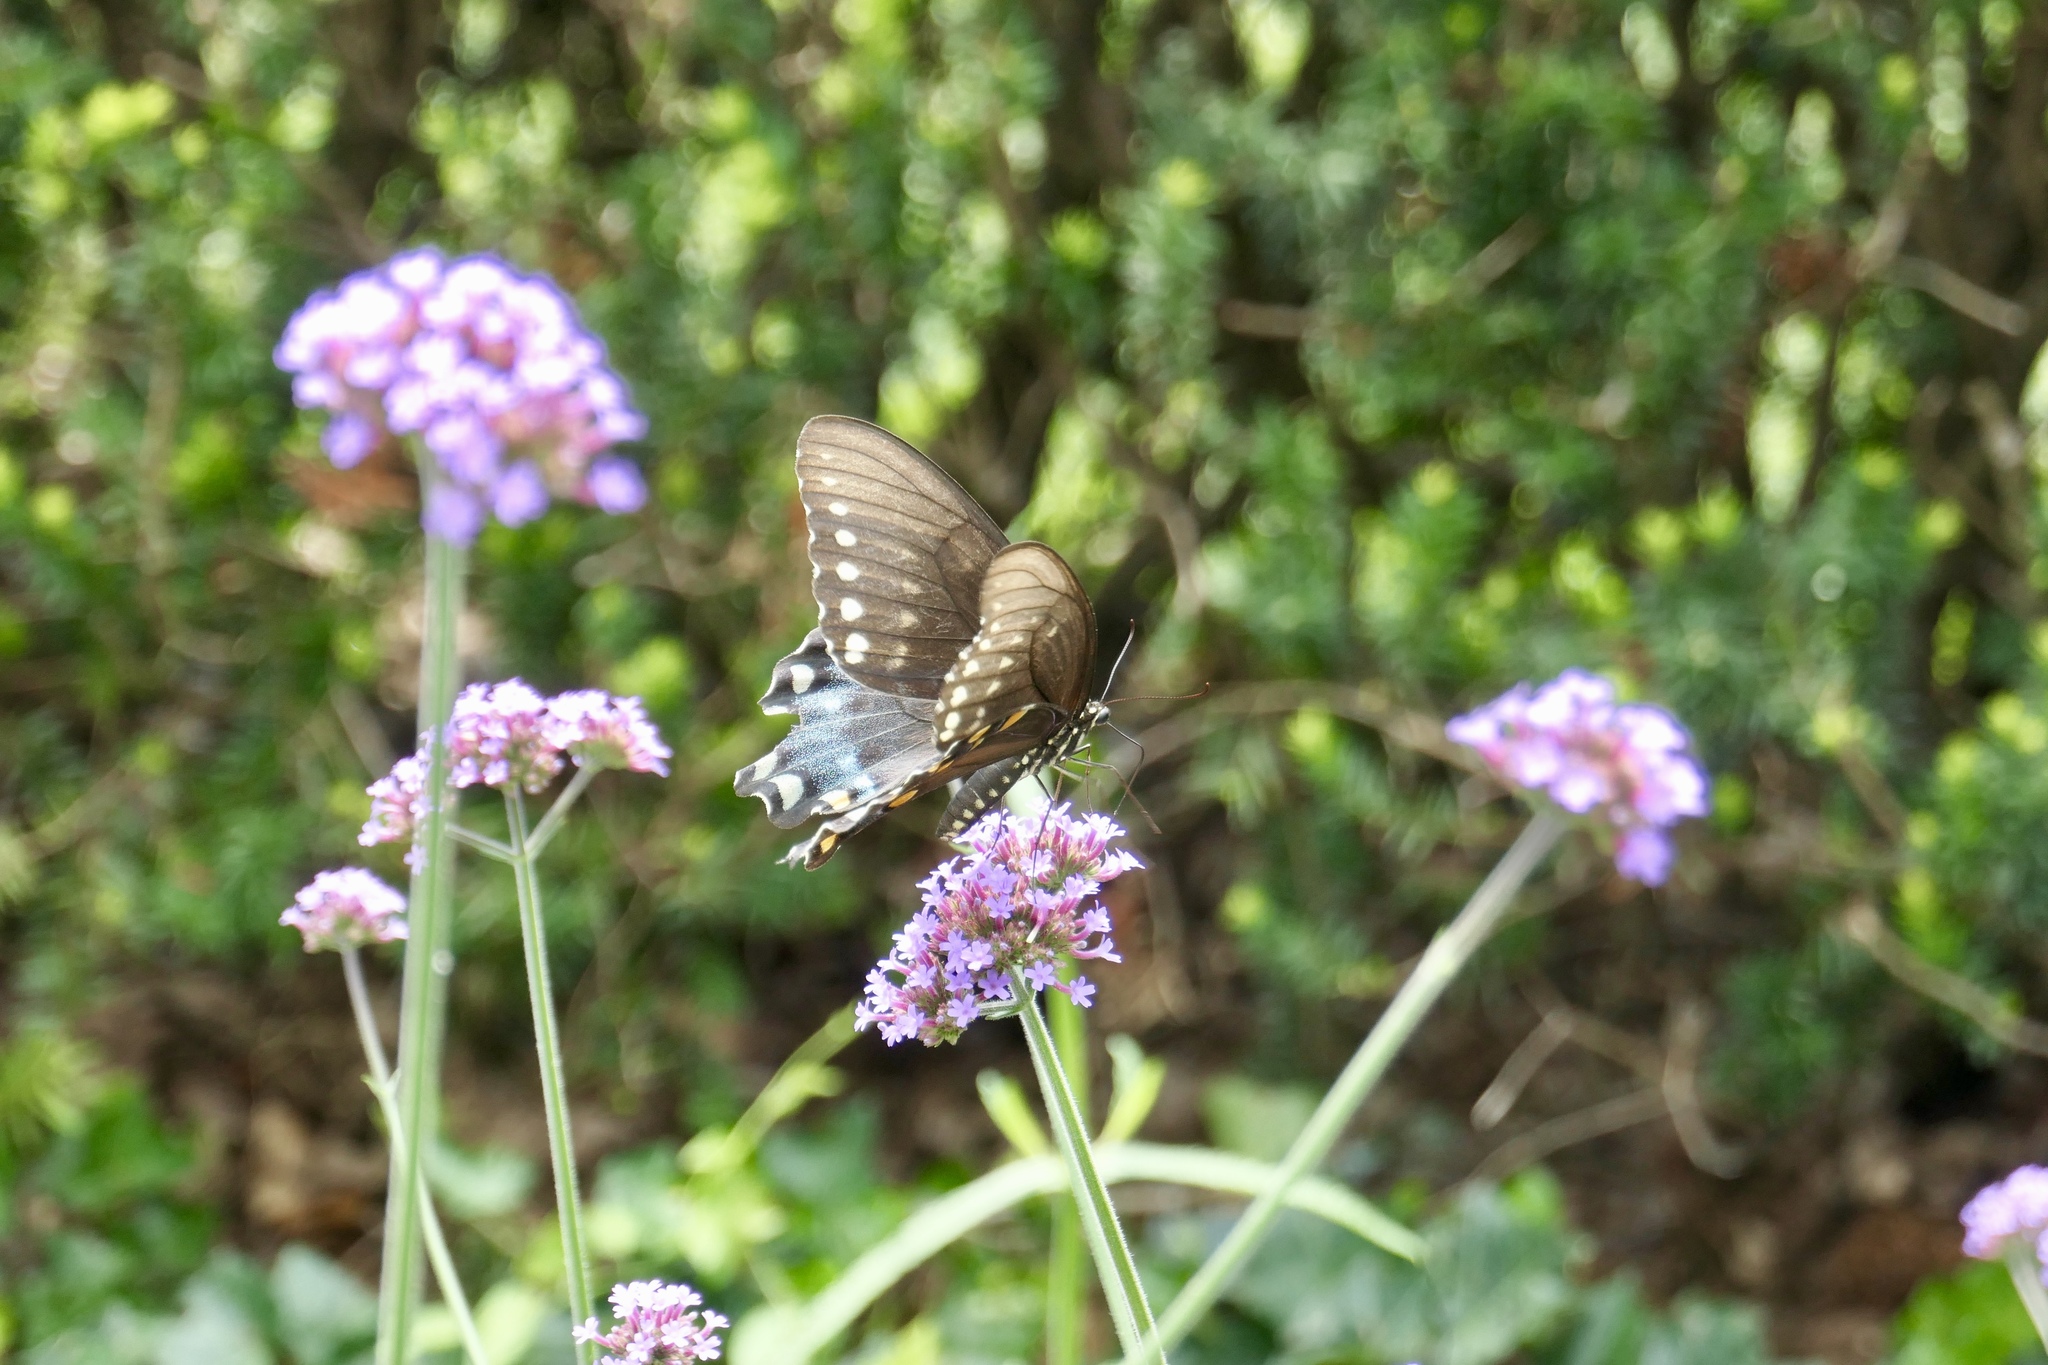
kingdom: Animalia
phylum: Arthropoda
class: Insecta
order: Lepidoptera
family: Papilionidae
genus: Papilio
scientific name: Papilio troilus
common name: Spicebush swallowtail
